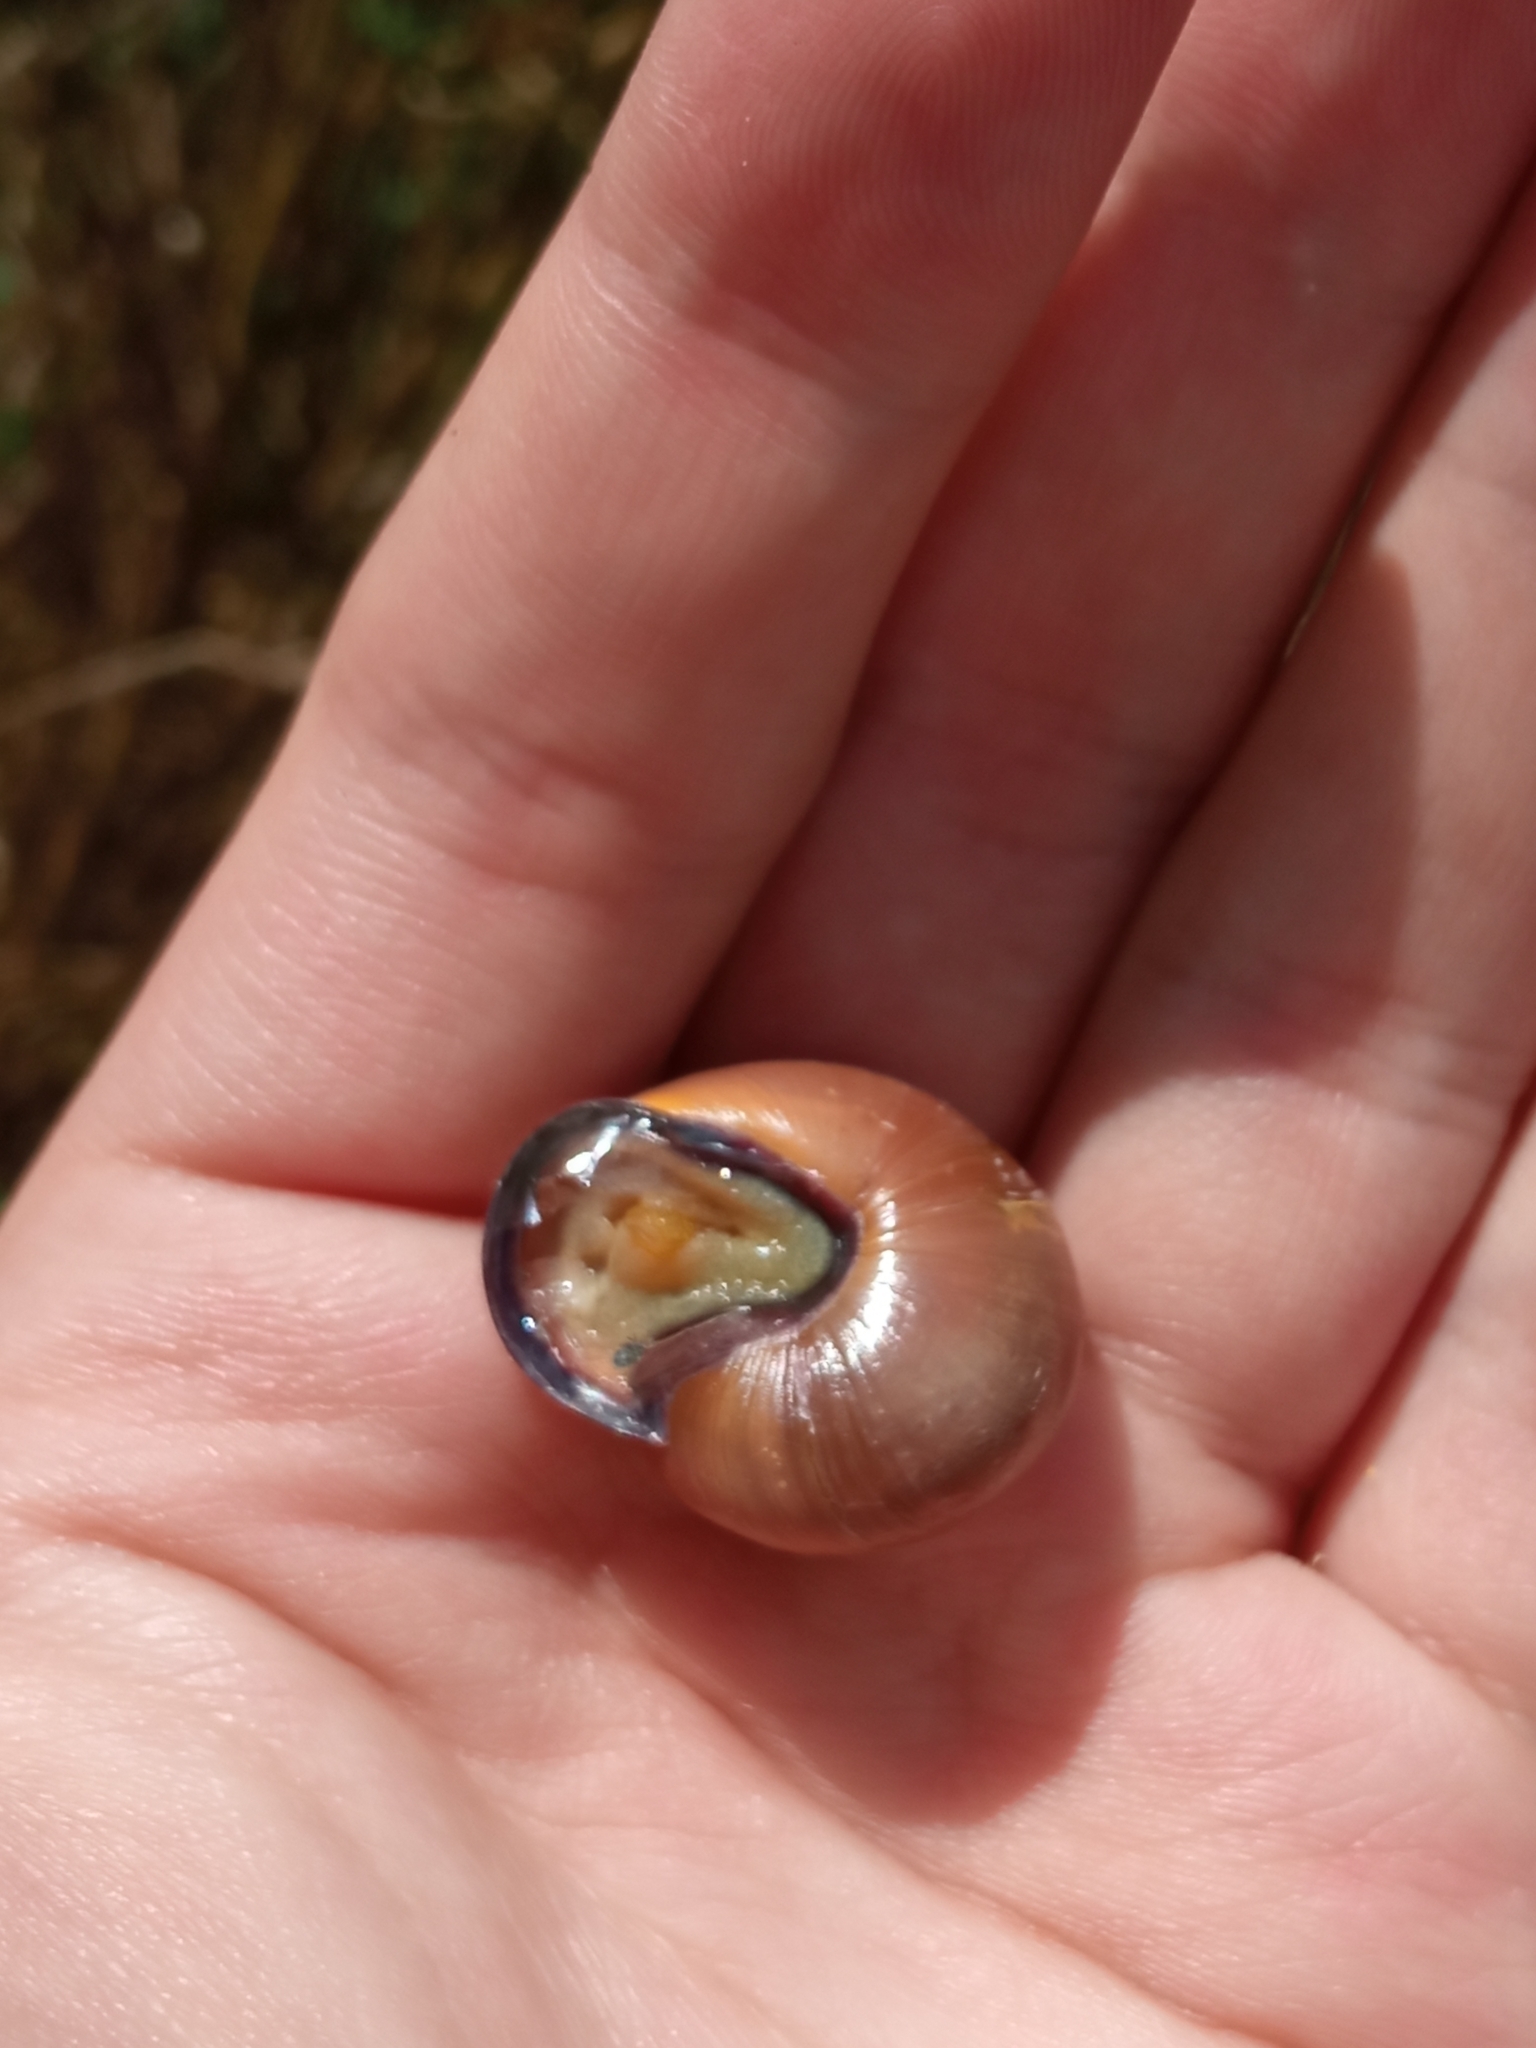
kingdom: Animalia
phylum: Mollusca
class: Gastropoda
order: Stylommatophora
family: Helicidae
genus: Cepaea
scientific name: Cepaea nemoralis
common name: Grovesnail
